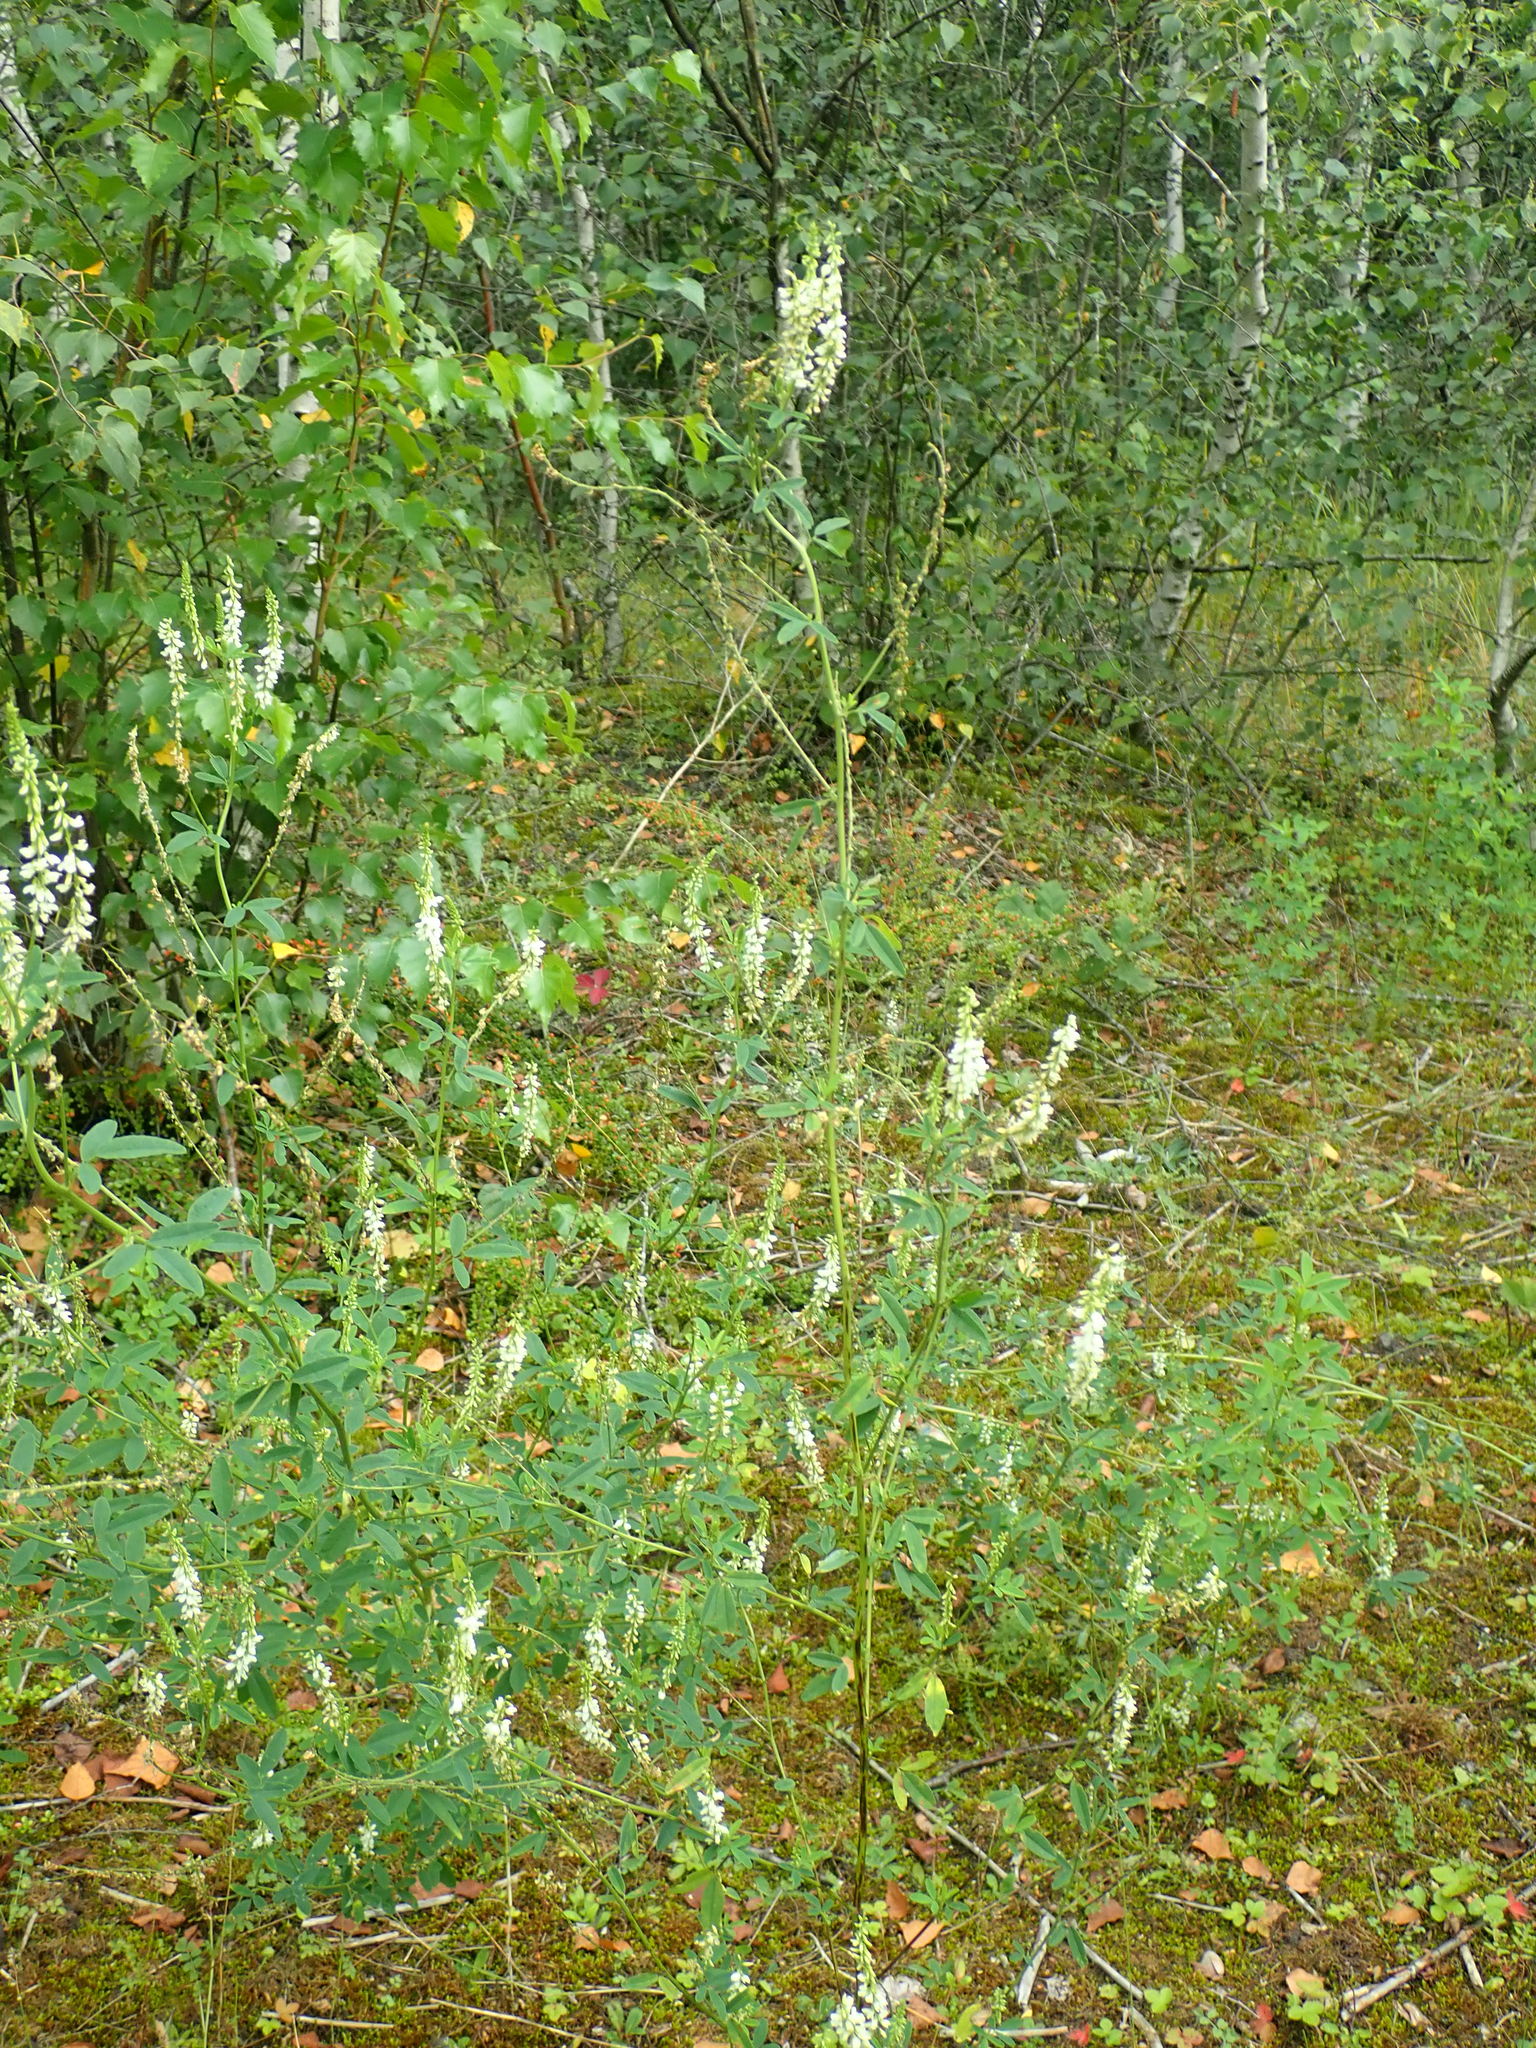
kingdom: Plantae
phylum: Tracheophyta
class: Magnoliopsida
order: Fabales
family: Fabaceae
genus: Melilotus
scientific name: Melilotus albus
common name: White melilot
